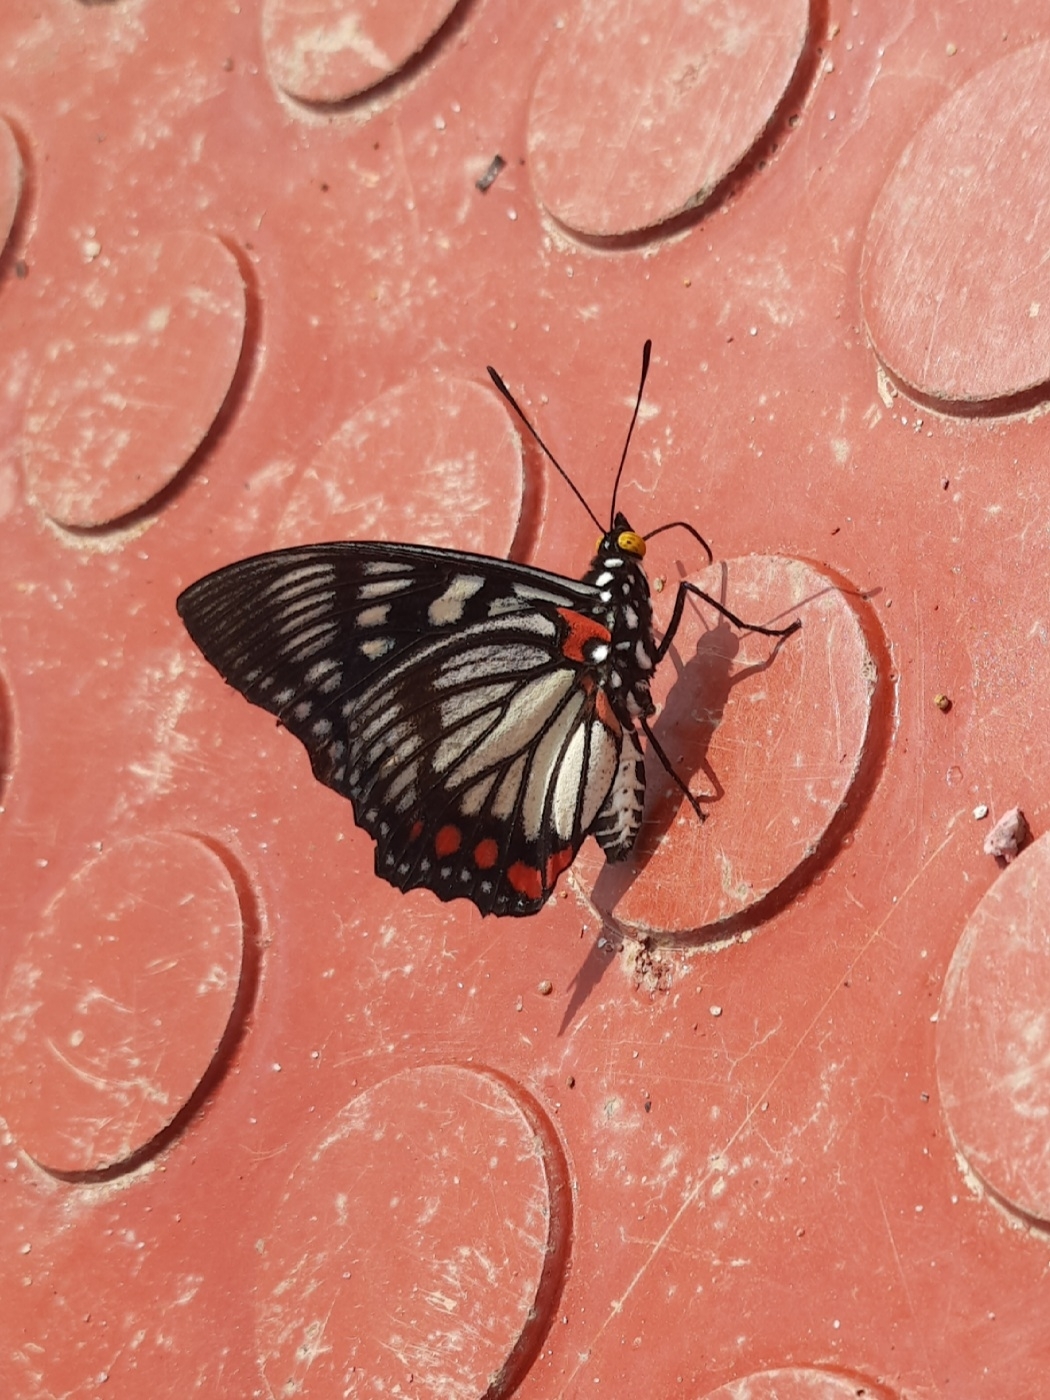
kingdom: Animalia
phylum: Arthropoda
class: Insecta
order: Lepidoptera
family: Nymphalidae
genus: Euripus
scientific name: Euripus consimilis
